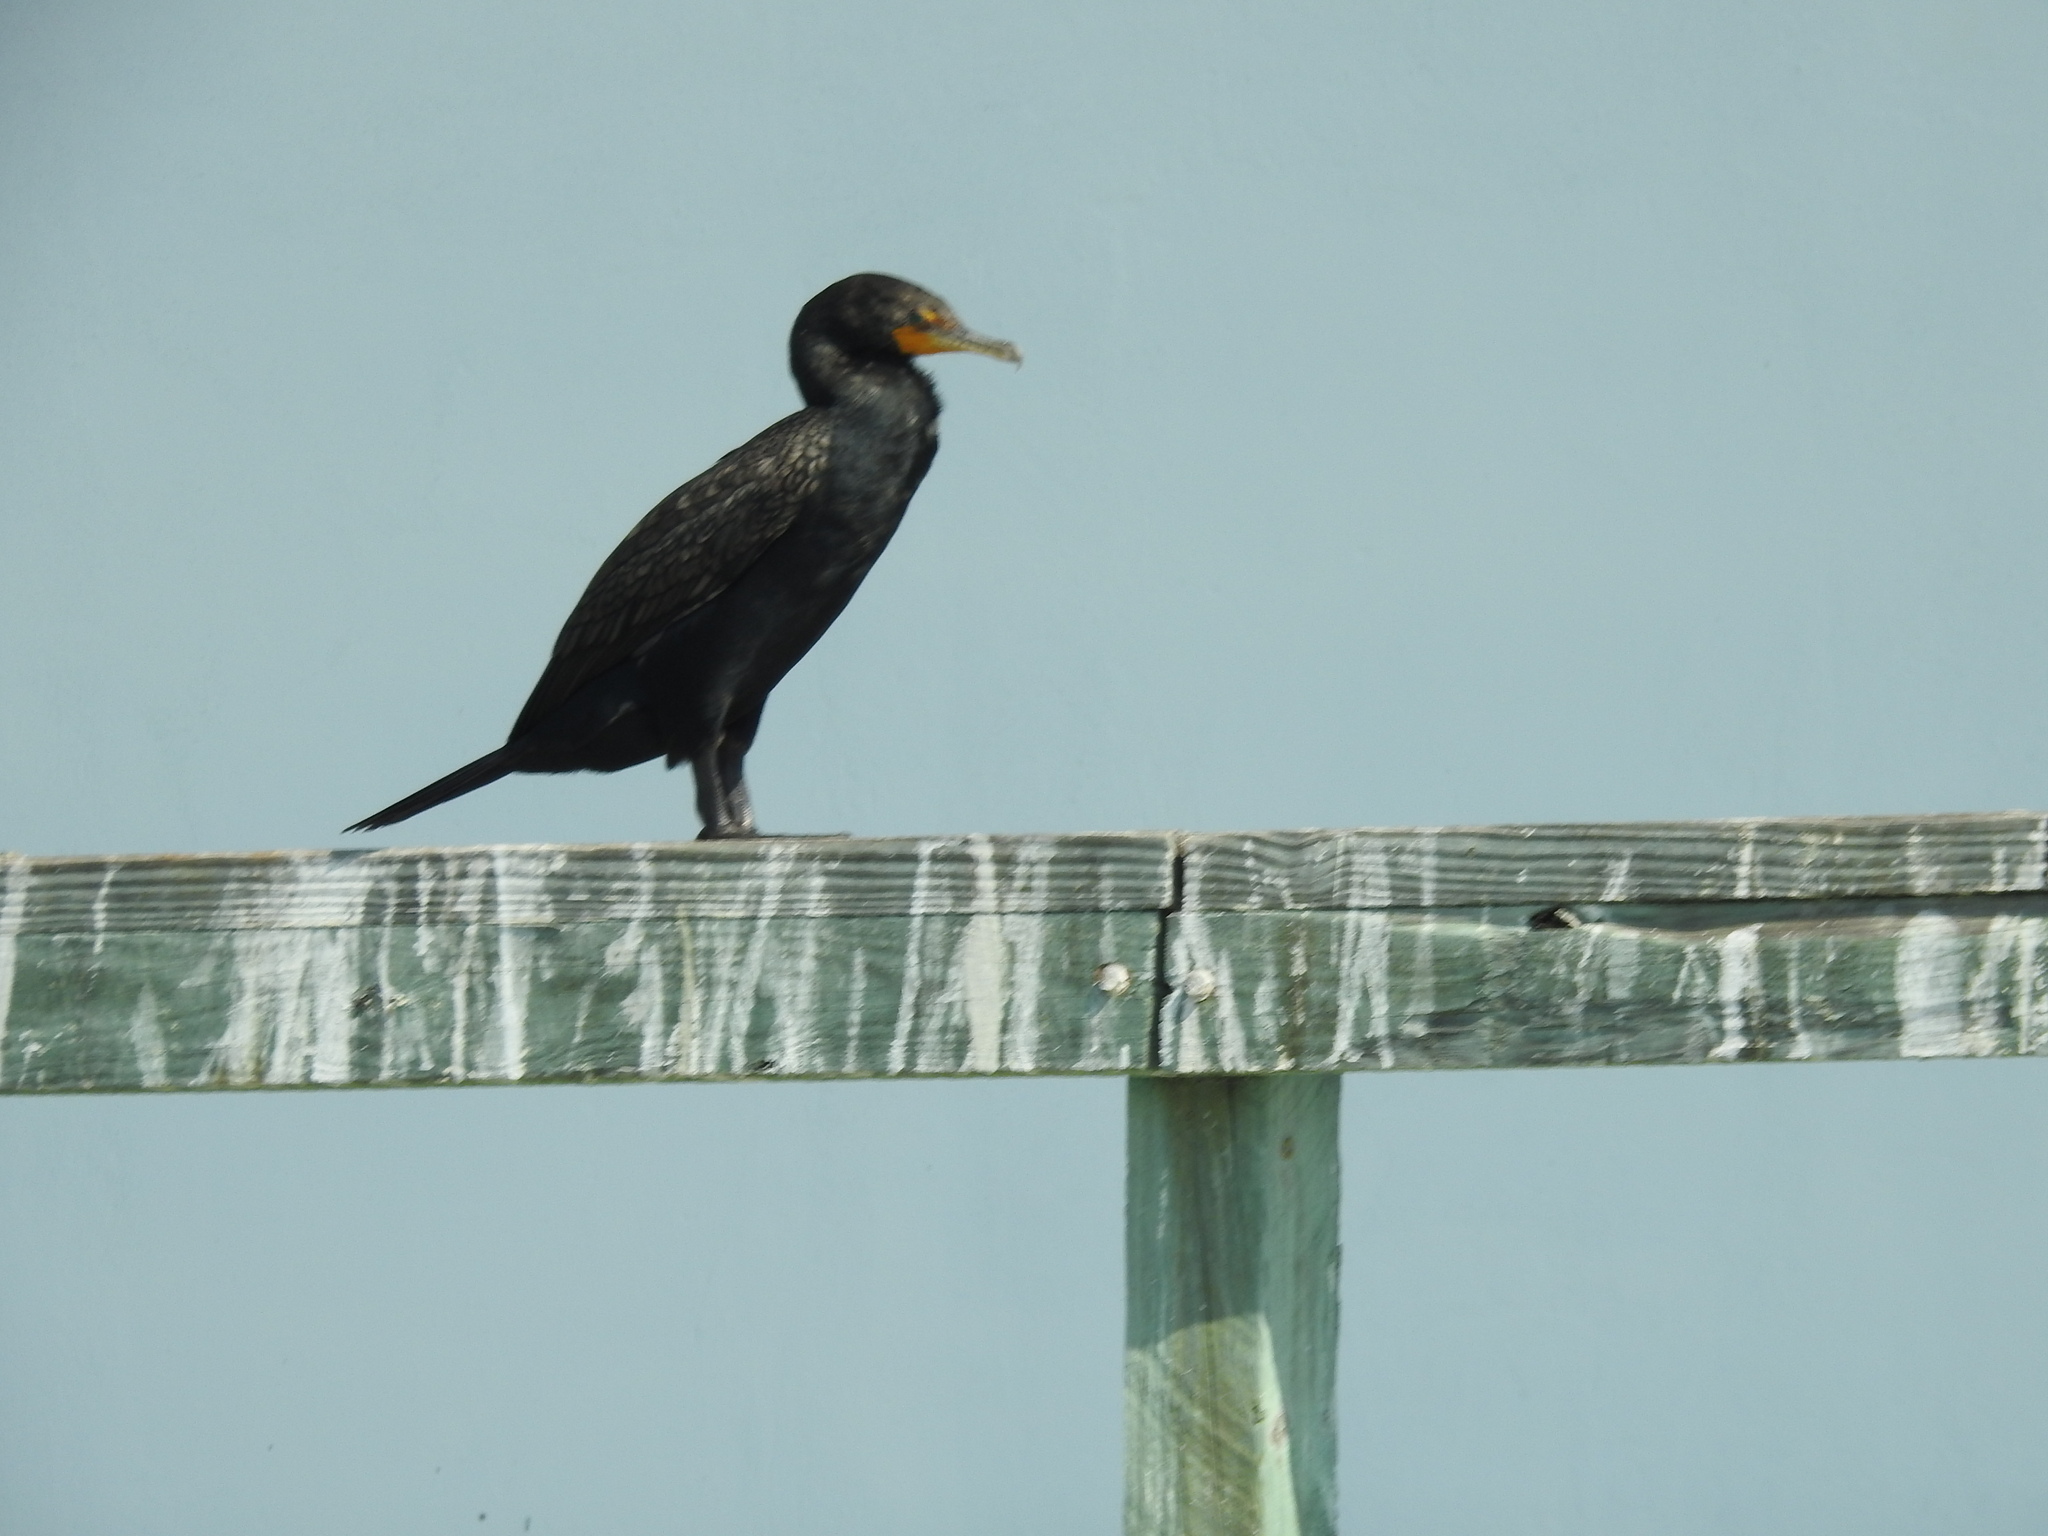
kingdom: Animalia
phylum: Chordata
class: Aves
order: Suliformes
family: Phalacrocoracidae
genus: Phalacrocorax
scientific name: Phalacrocorax auritus
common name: Double-crested cormorant
